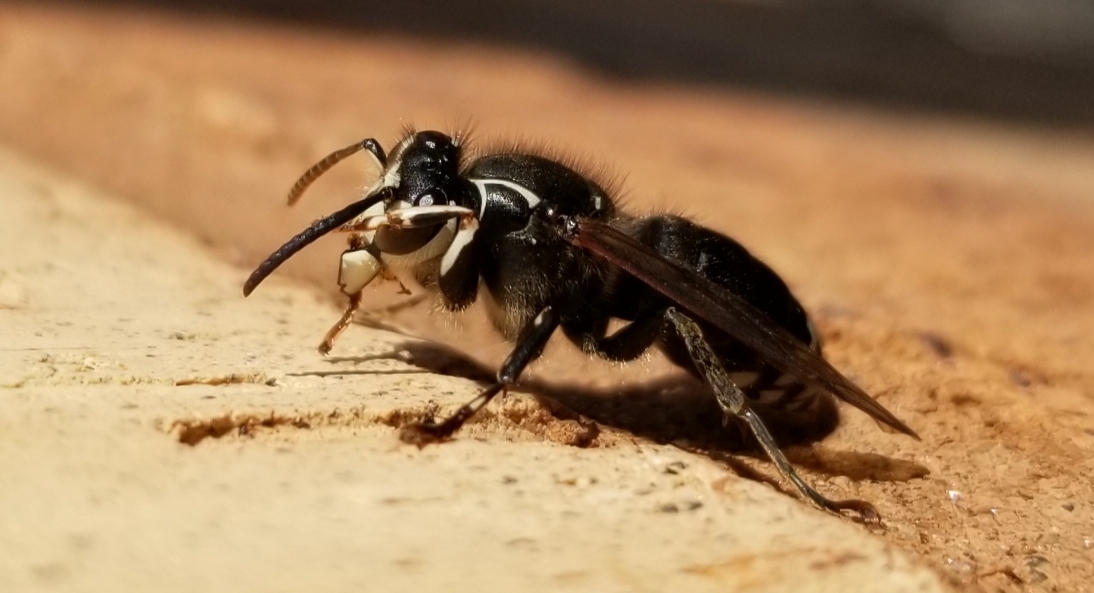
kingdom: Animalia
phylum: Arthropoda
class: Insecta
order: Hymenoptera
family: Vespidae
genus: Dolichovespula
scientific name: Dolichovespula maculata
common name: Bald-faced hornet
